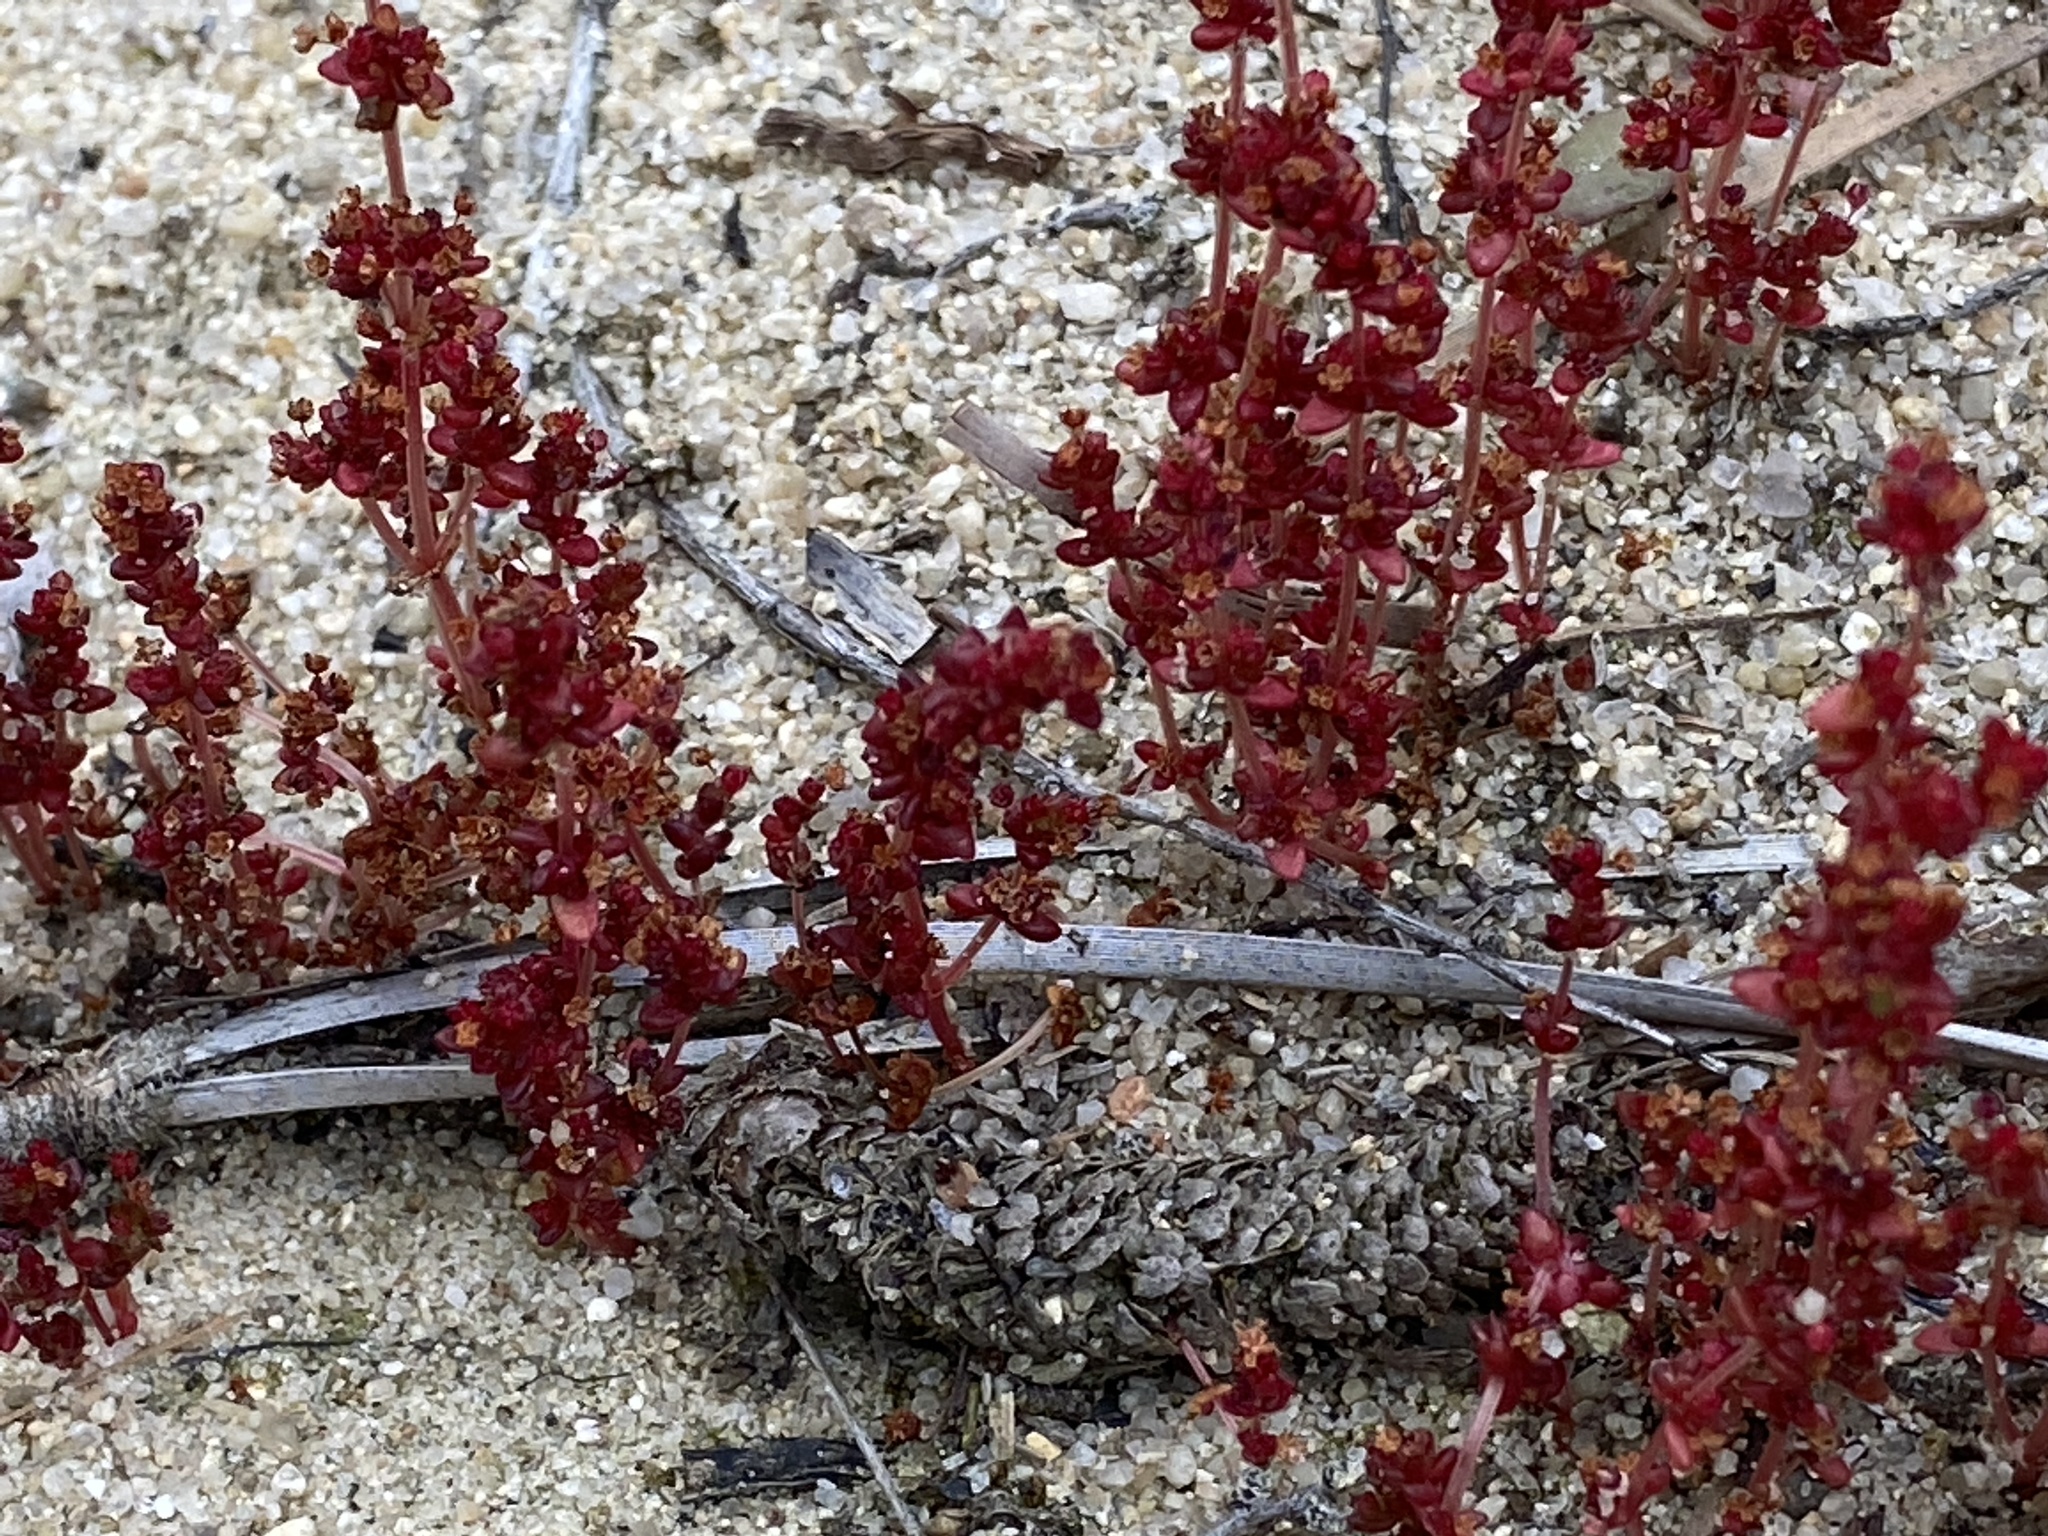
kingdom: Plantae
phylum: Tracheophyta
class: Magnoliopsida
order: Saxifragales
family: Crassulaceae
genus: Crassula
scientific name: Crassula connata
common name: Erect pygmyweed
